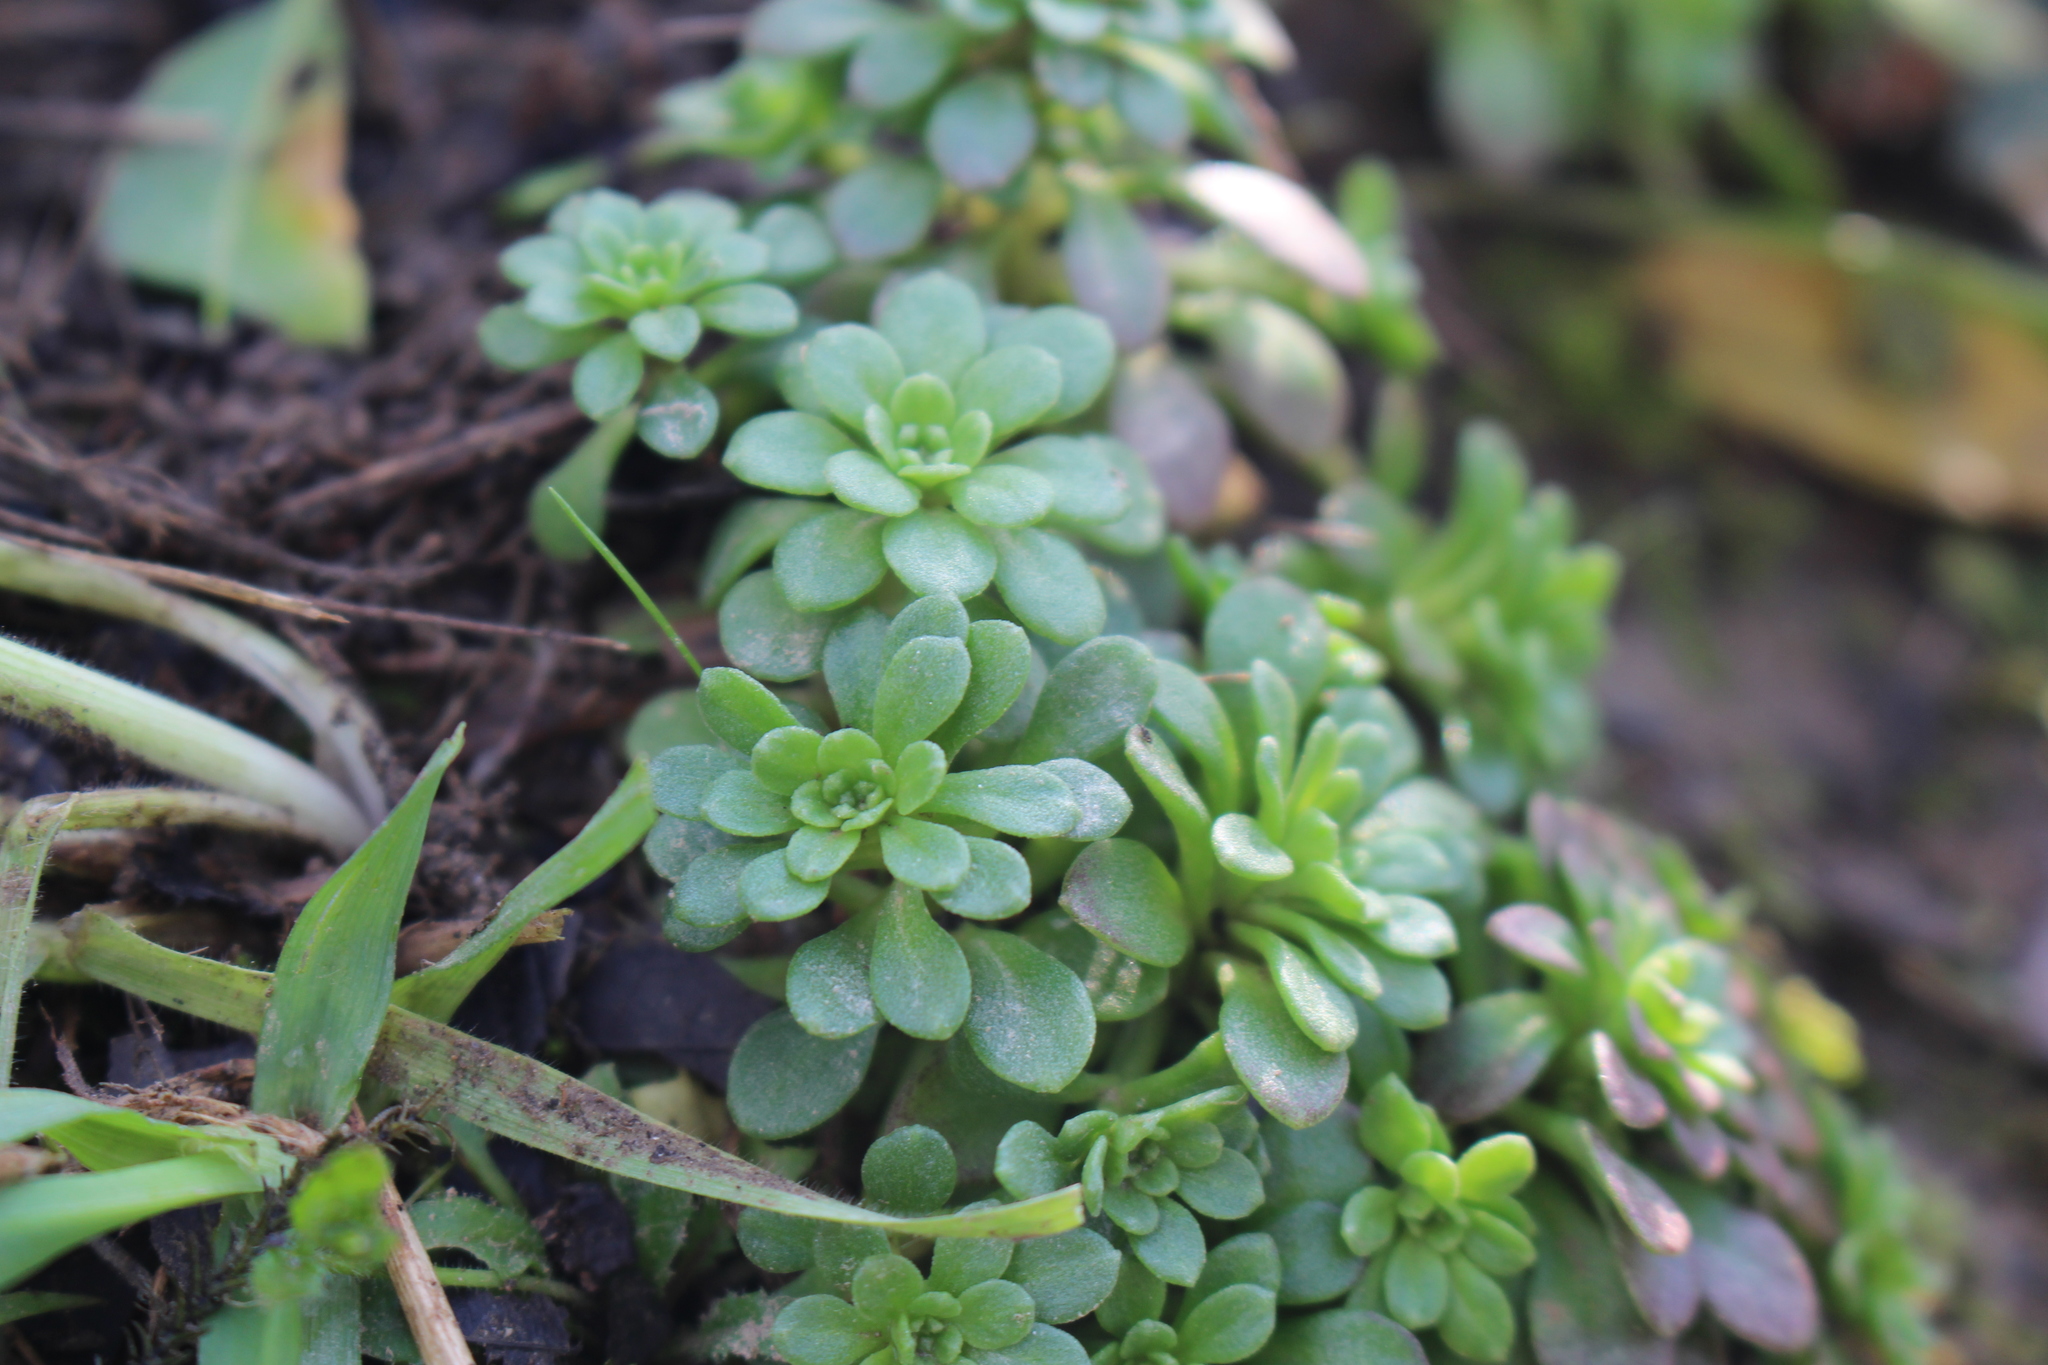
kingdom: Plantae
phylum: Tracheophyta
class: Magnoliopsida
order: Saxifragales
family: Crassulaceae
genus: Sedum
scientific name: Sedum cepaea
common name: Pink stonecrop
